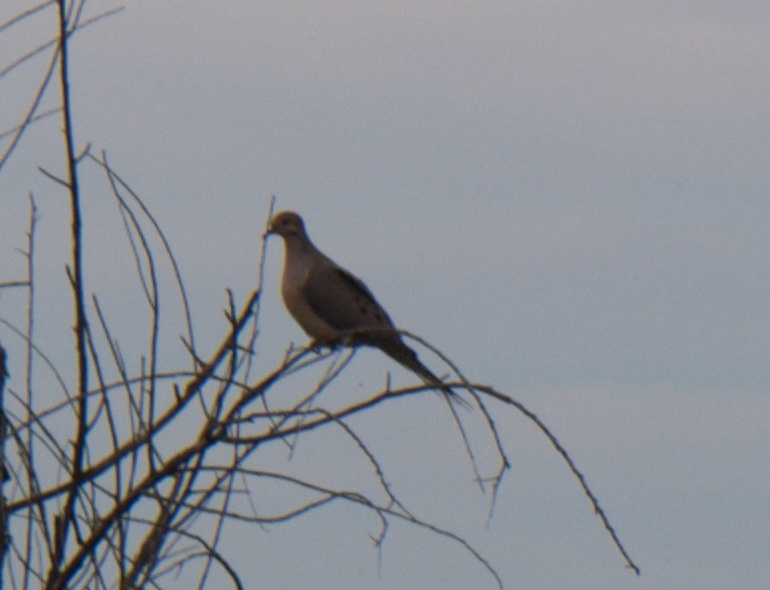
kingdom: Animalia
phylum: Chordata
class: Aves
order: Columbiformes
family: Columbidae
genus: Zenaida
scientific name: Zenaida macroura
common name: Mourning dove
